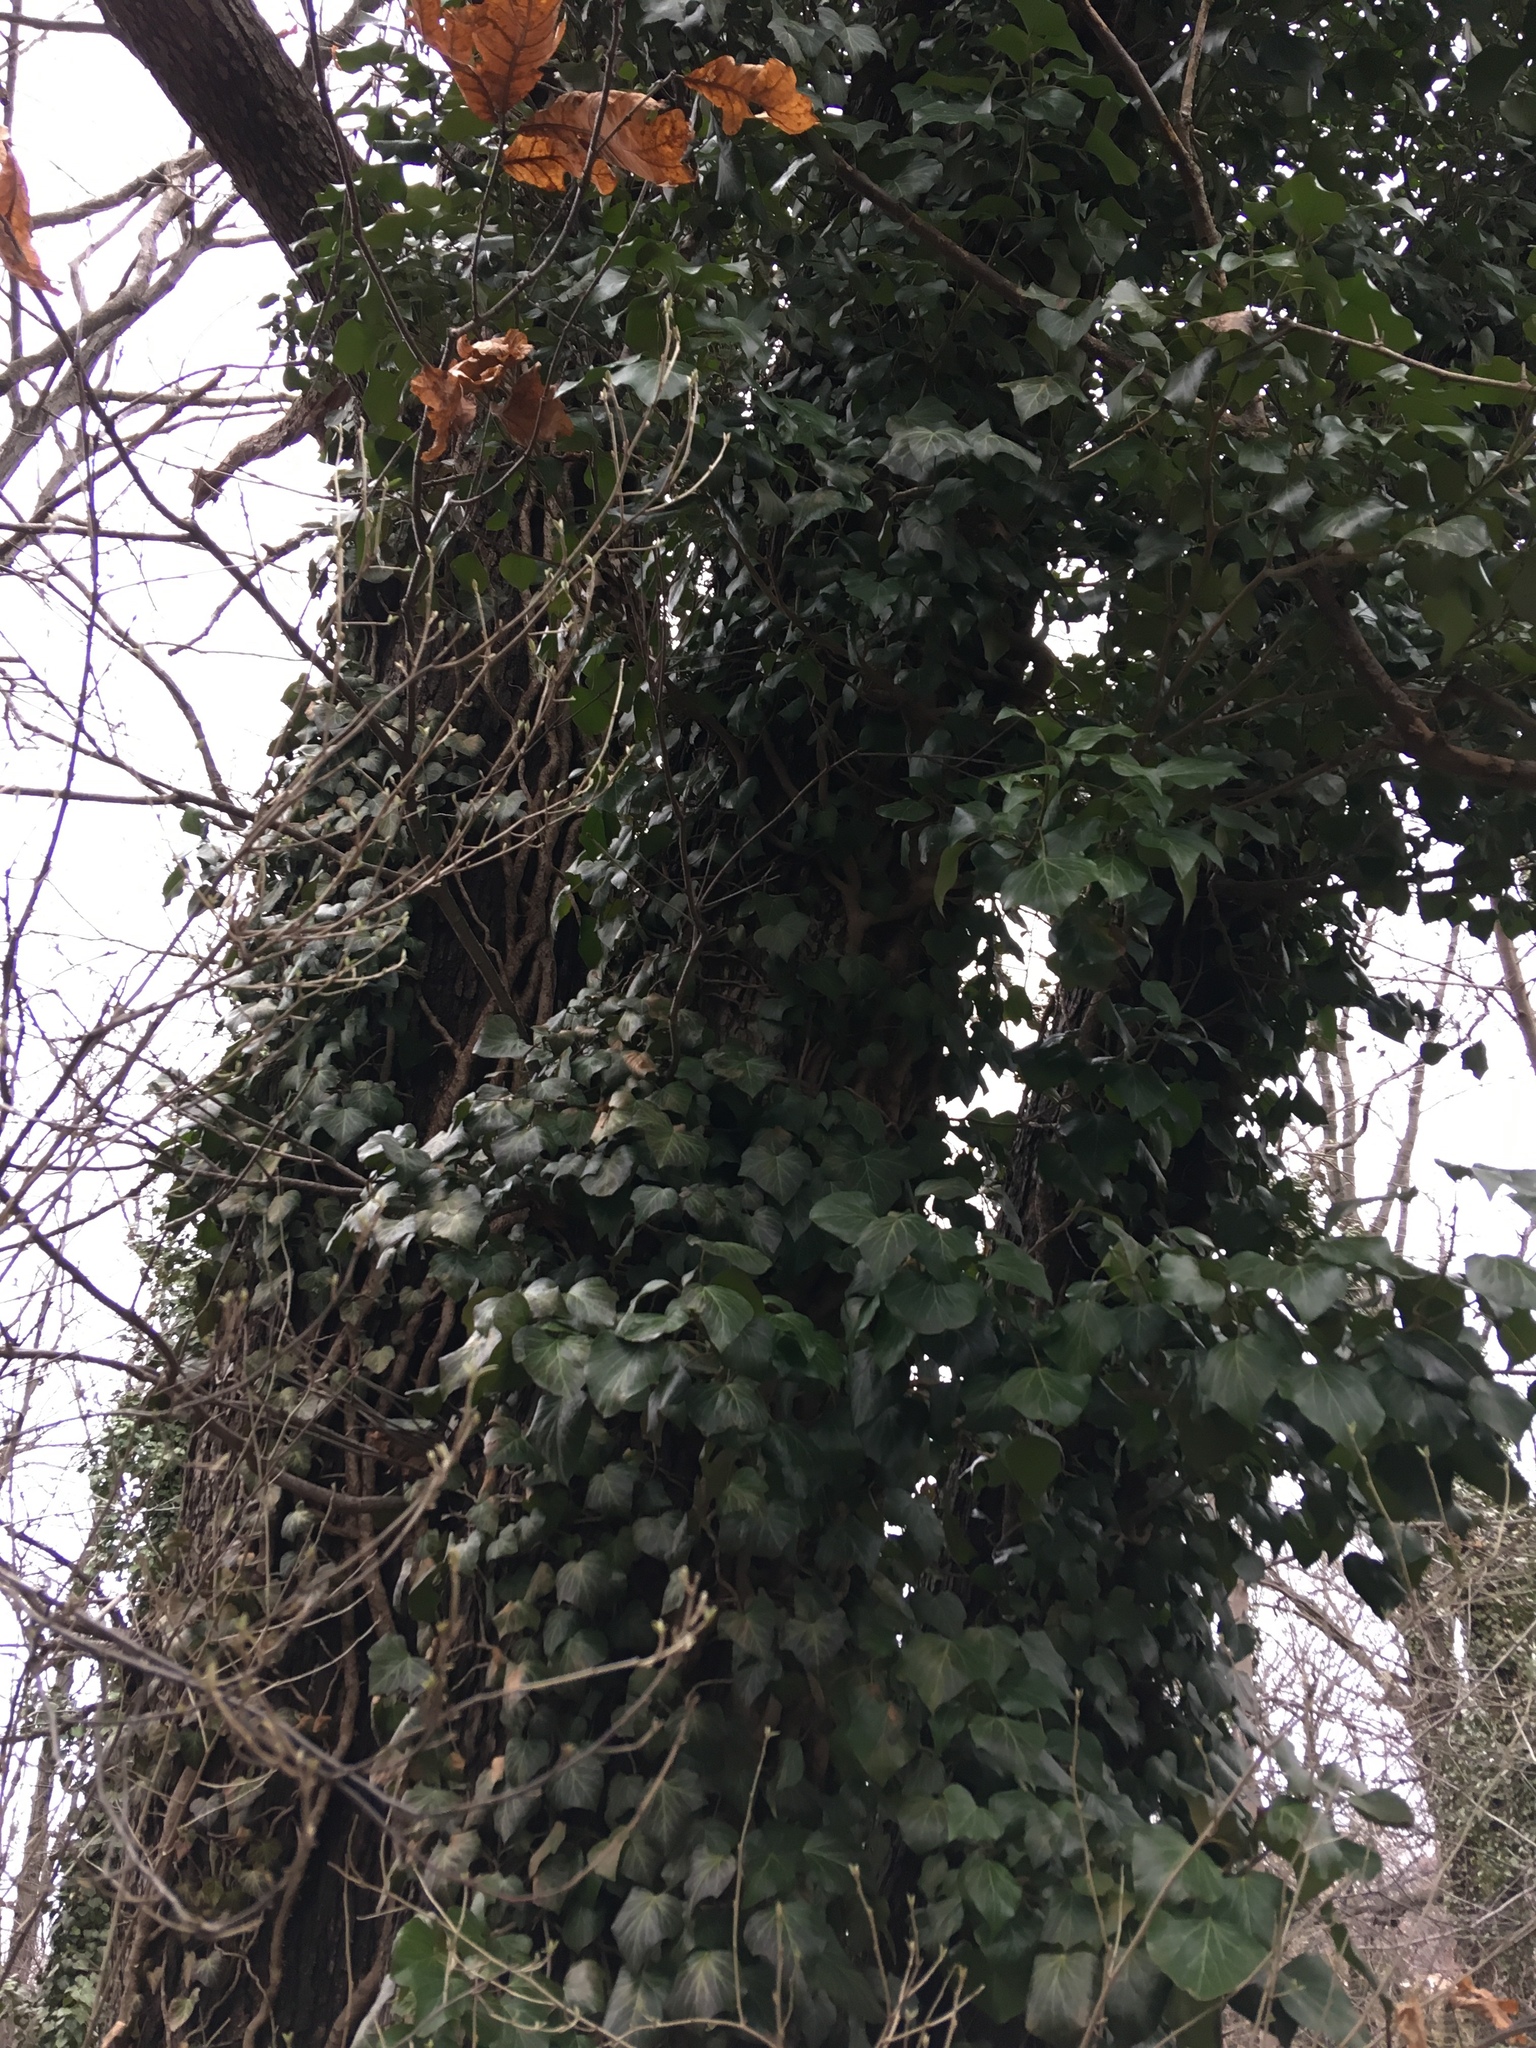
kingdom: Plantae
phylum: Tracheophyta
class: Magnoliopsida
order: Apiales
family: Araliaceae
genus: Hedera
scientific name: Hedera helix
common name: Ivy
